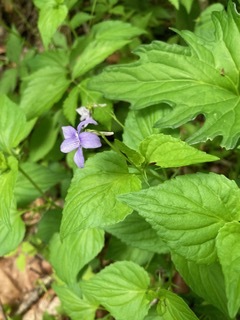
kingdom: Plantae
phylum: Tracheophyta
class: Magnoliopsida
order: Malpighiales
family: Violaceae
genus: Viola
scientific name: Viola rostrata
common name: Long-spur violet
